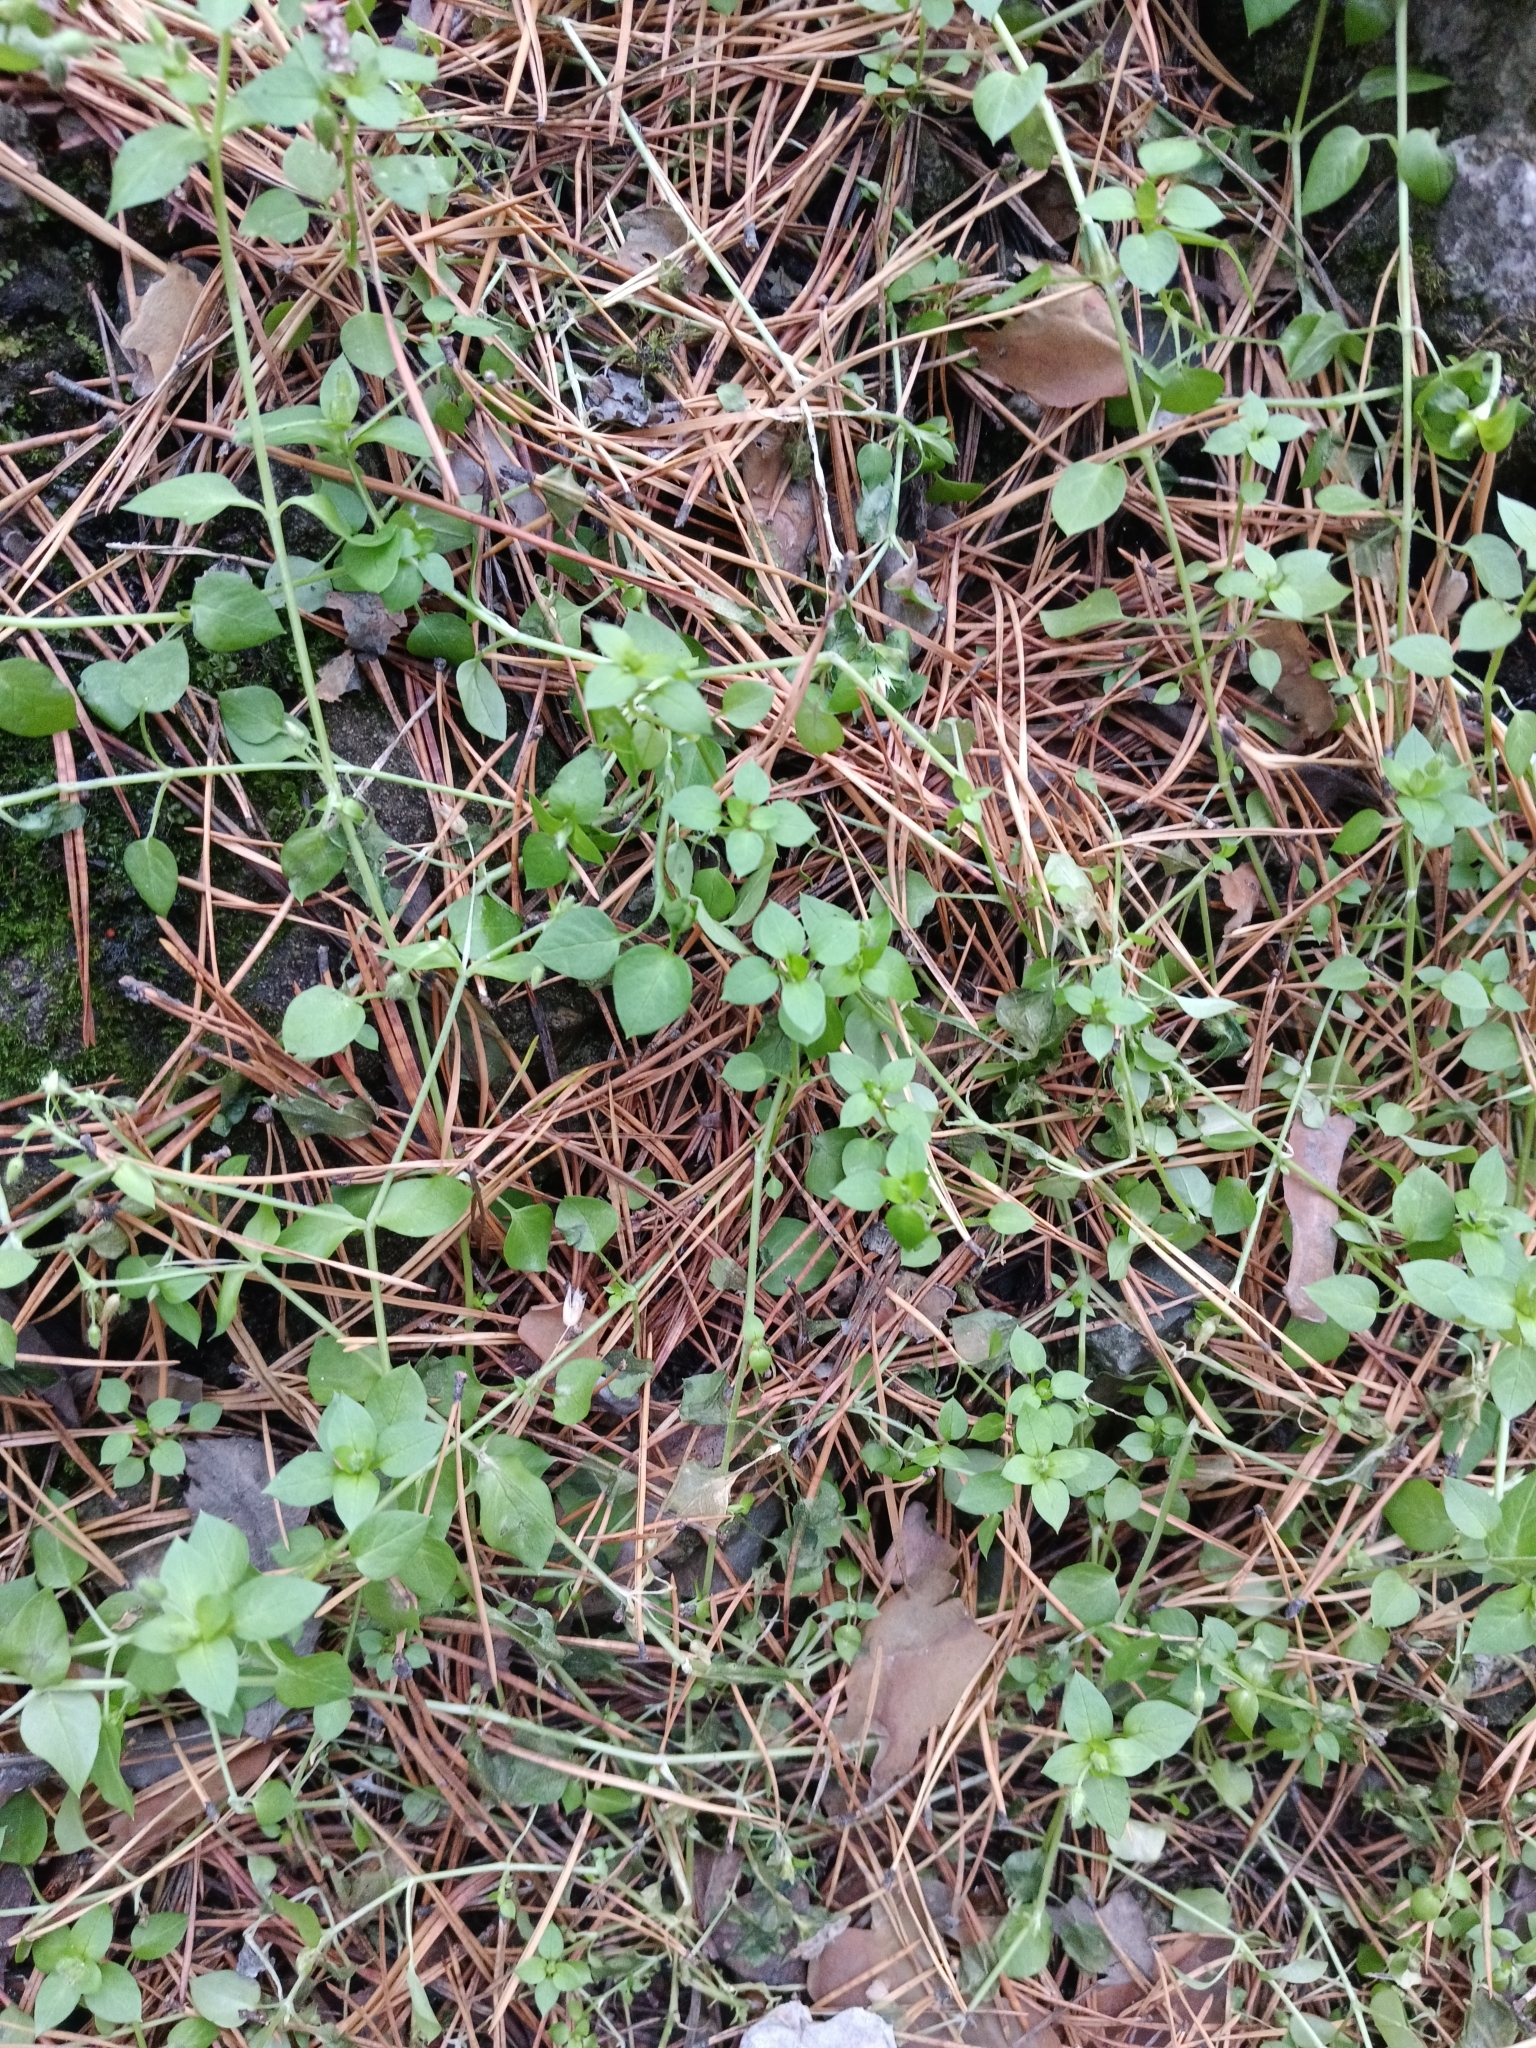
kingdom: Plantae
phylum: Tracheophyta
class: Magnoliopsida
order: Caryophyllales
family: Caryophyllaceae
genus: Stellaria
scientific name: Stellaria media
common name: Common chickweed
